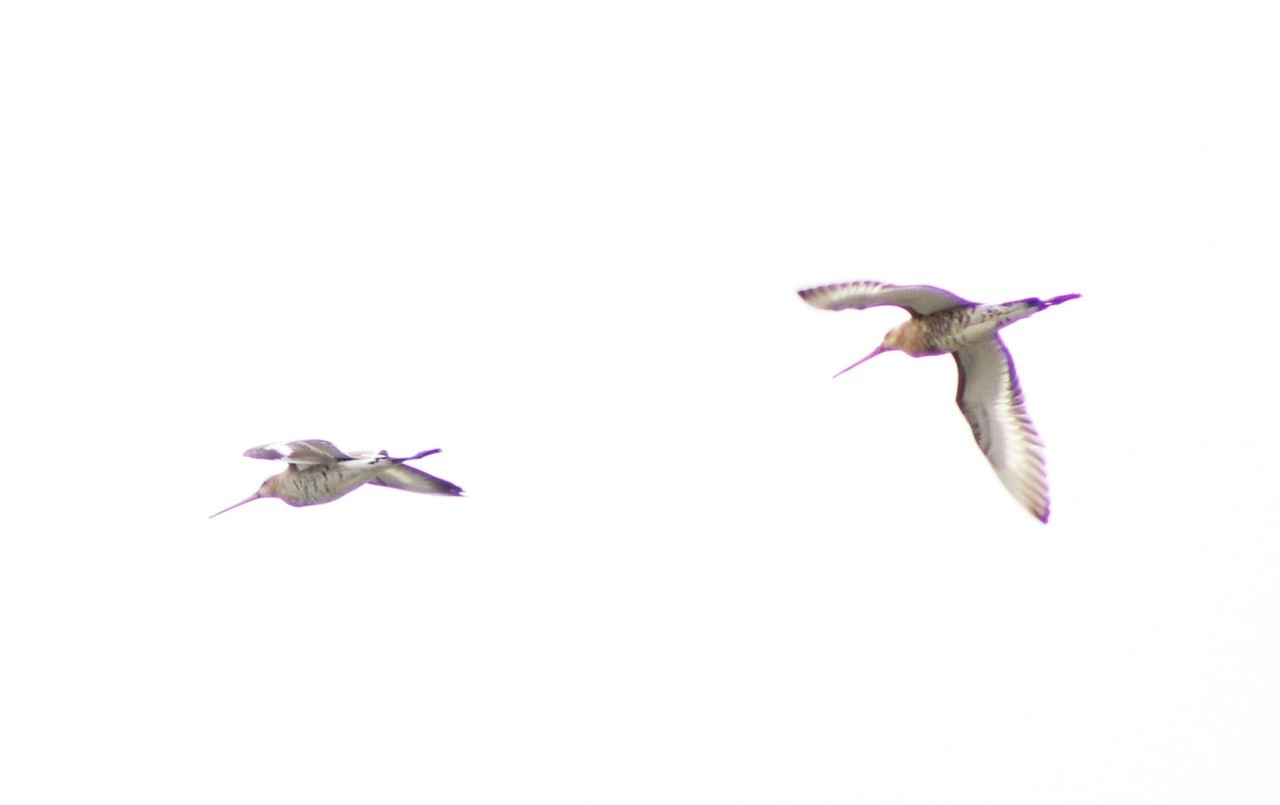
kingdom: Animalia
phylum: Chordata
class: Aves
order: Charadriiformes
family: Scolopacidae
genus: Limosa
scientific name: Limosa limosa
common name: Black-tailed godwit
